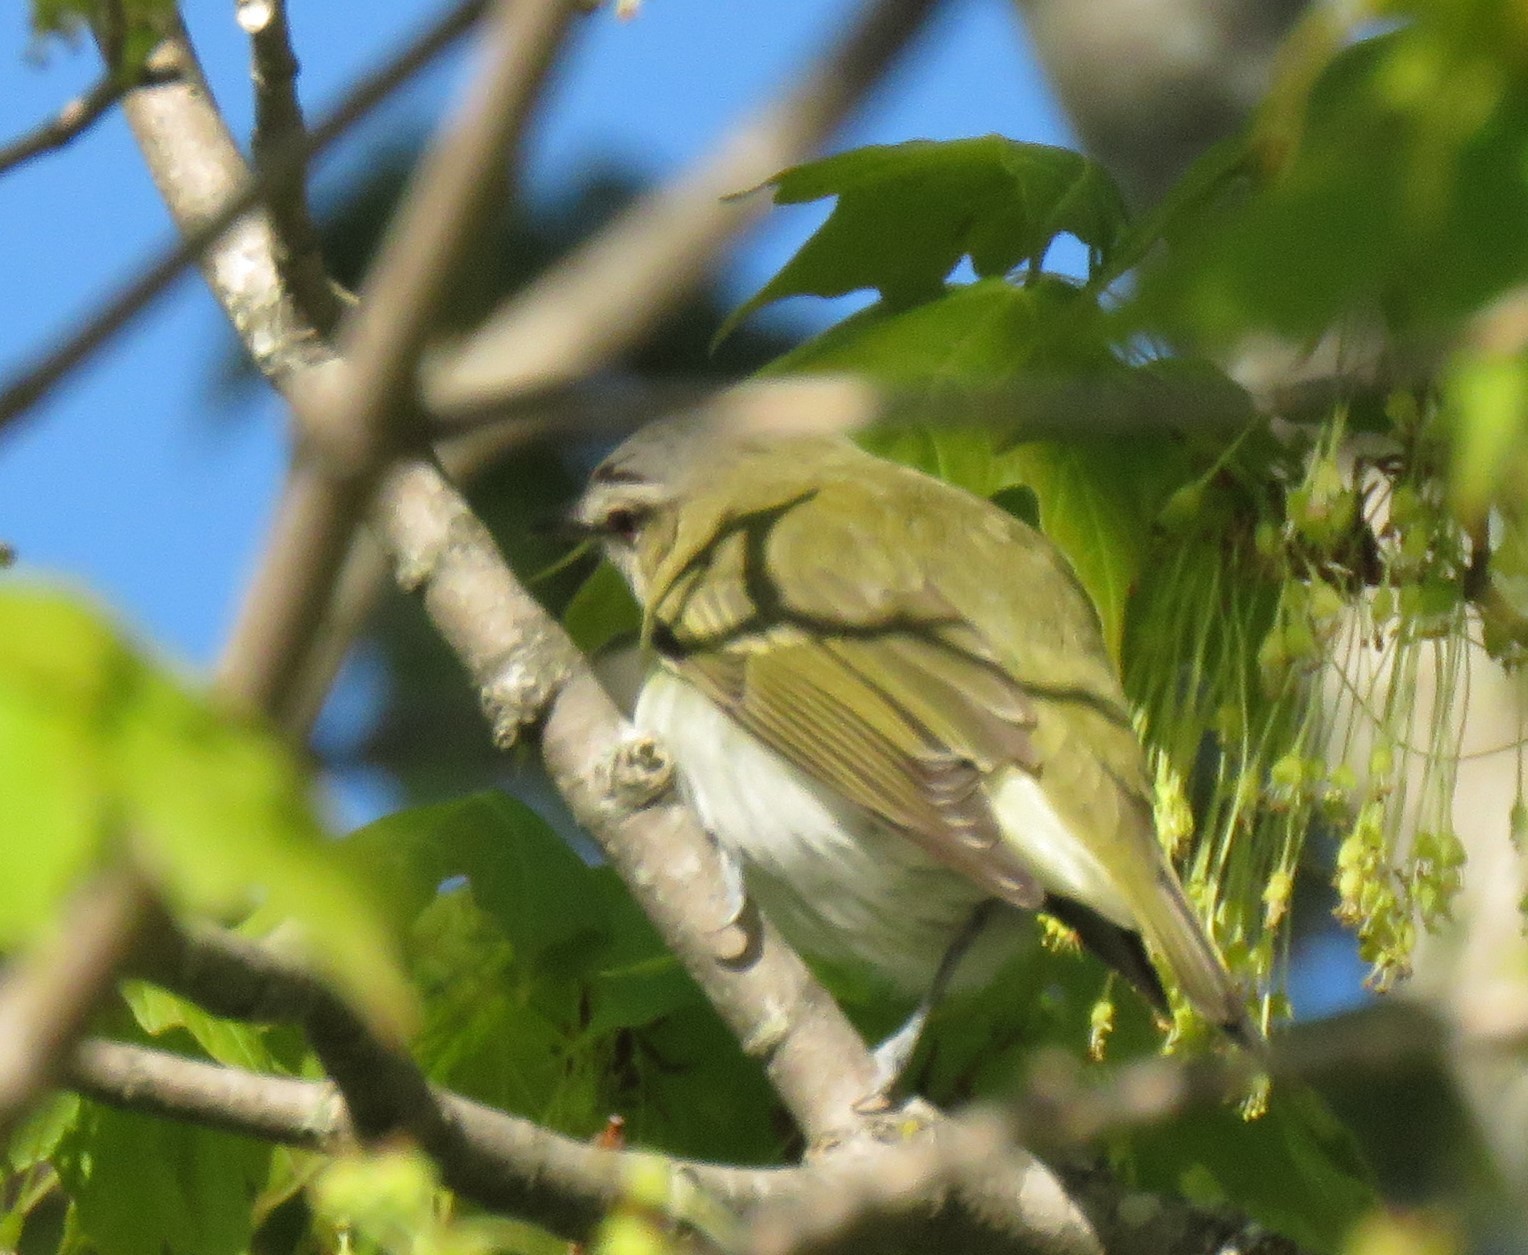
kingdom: Animalia
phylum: Chordata
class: Aves
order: Passeriformes
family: Vireonidae
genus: Vireo
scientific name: Vireo olivaceus
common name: Red-eyed vireo
